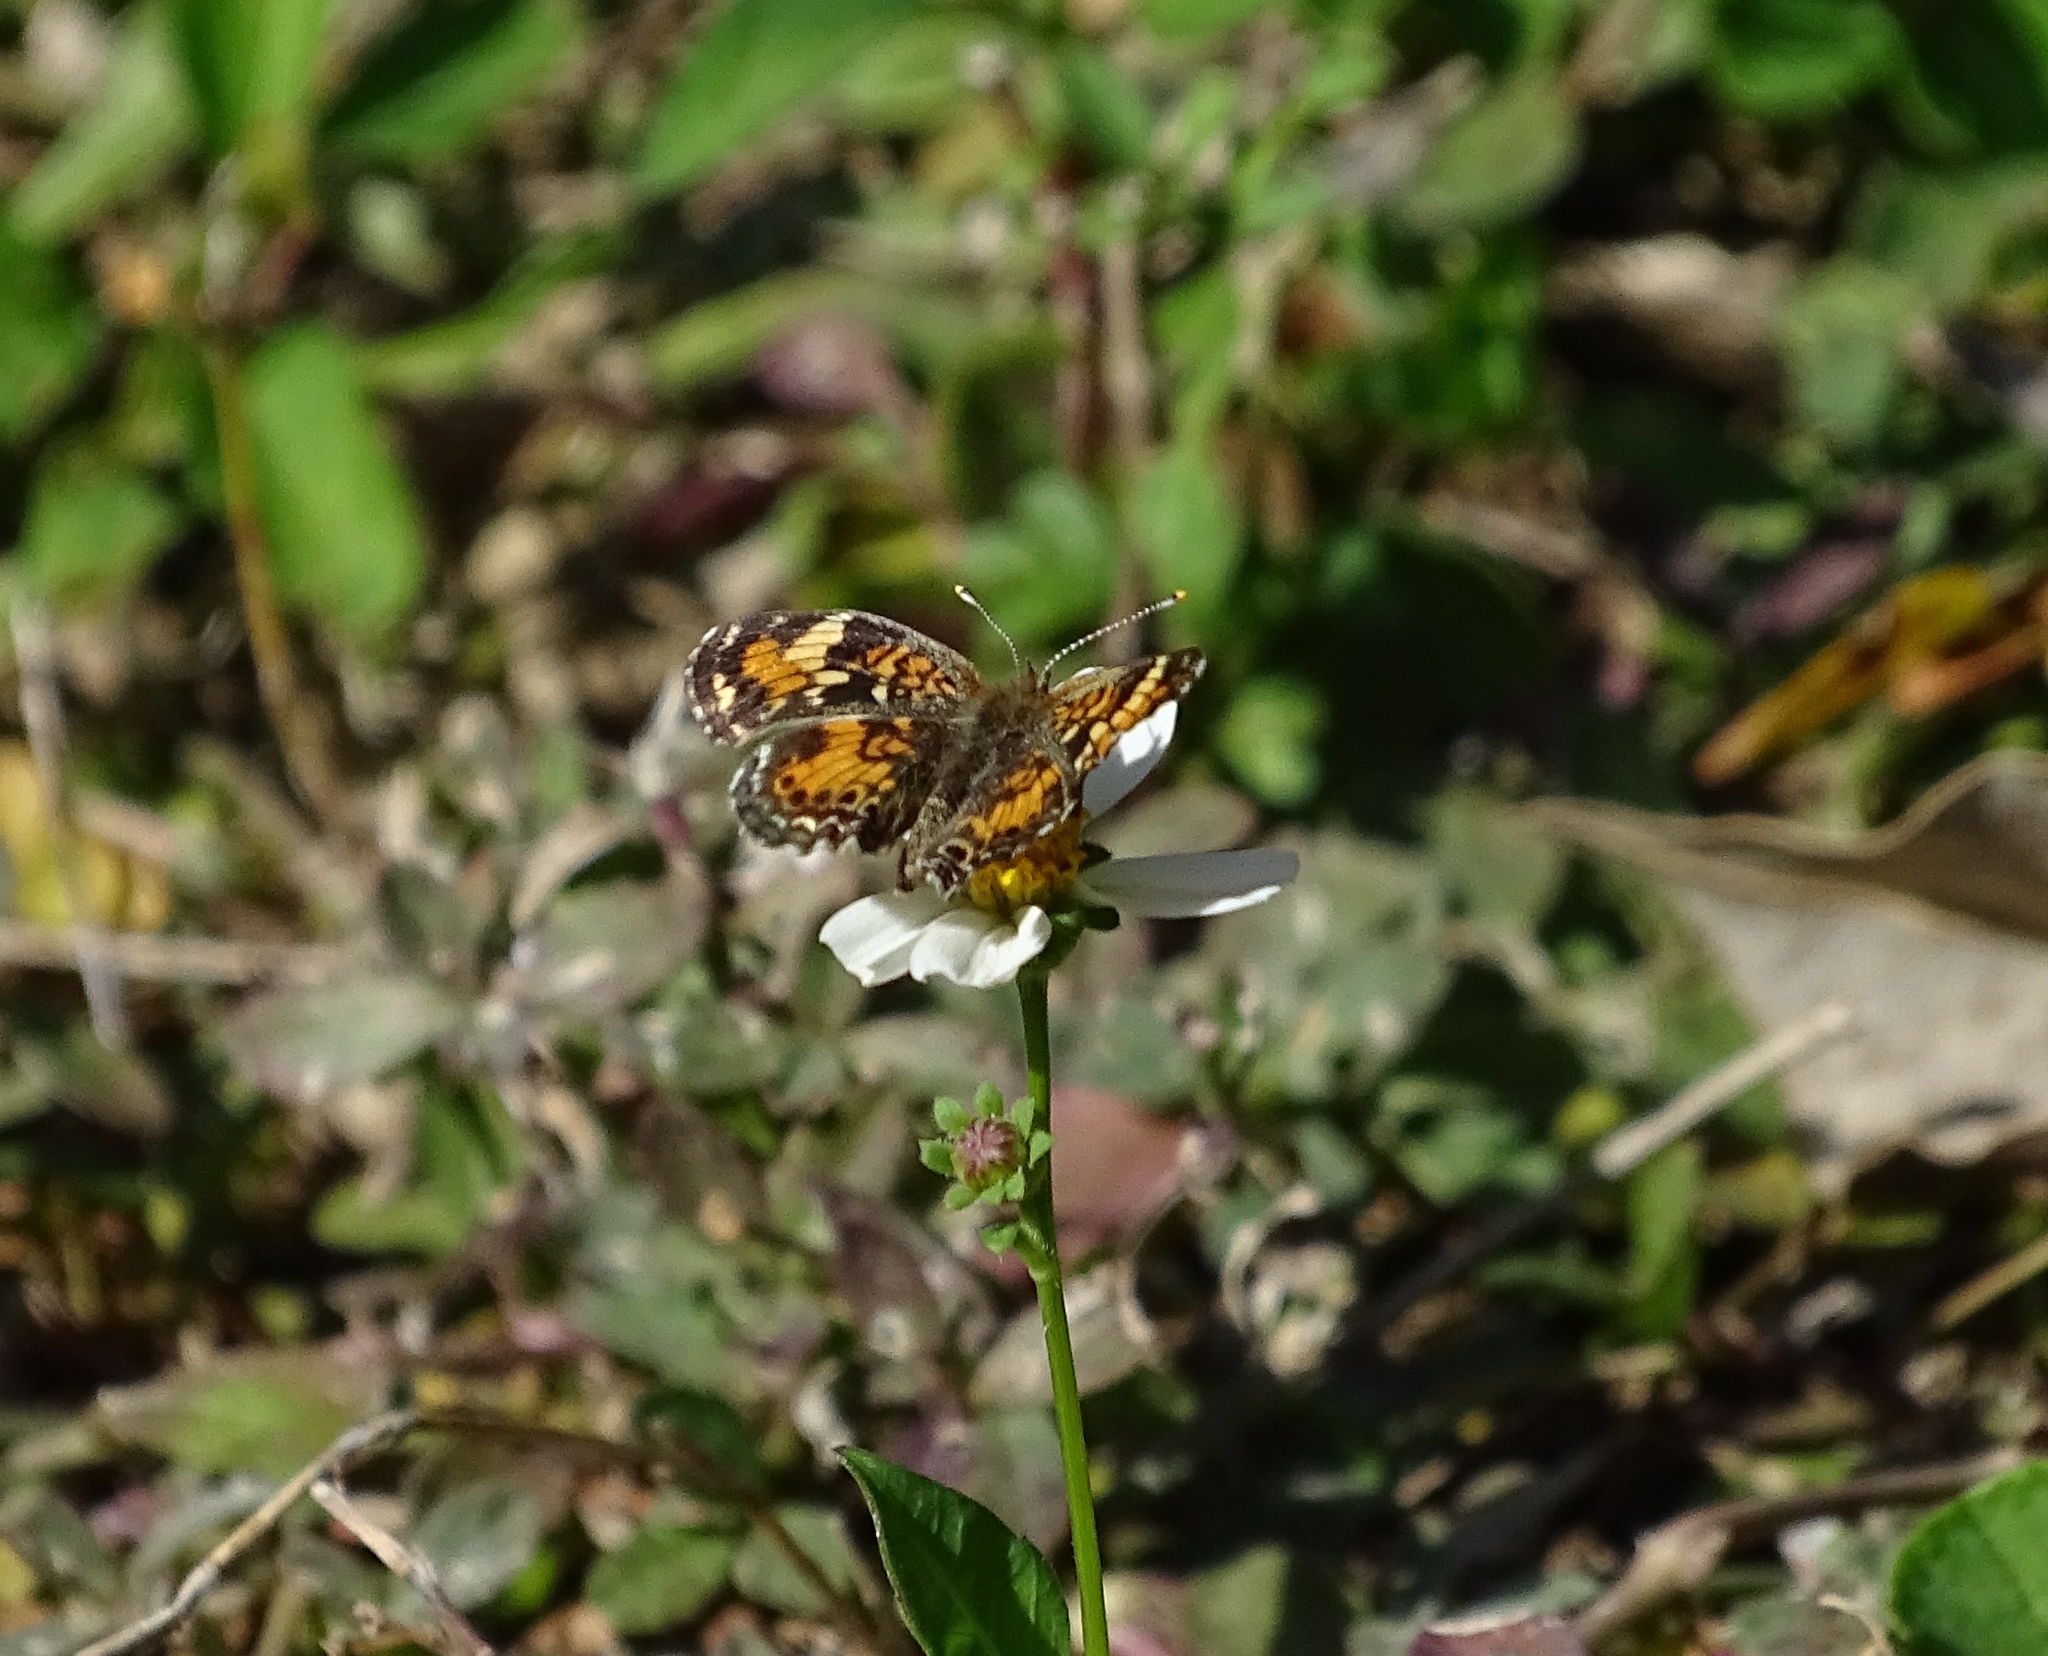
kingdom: Animalia
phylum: Arthropoda
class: Insecta
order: Lepidoptera
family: Nymphalidae
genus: Phyciodes
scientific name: Phyciodes phaon
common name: Phaon crescent
